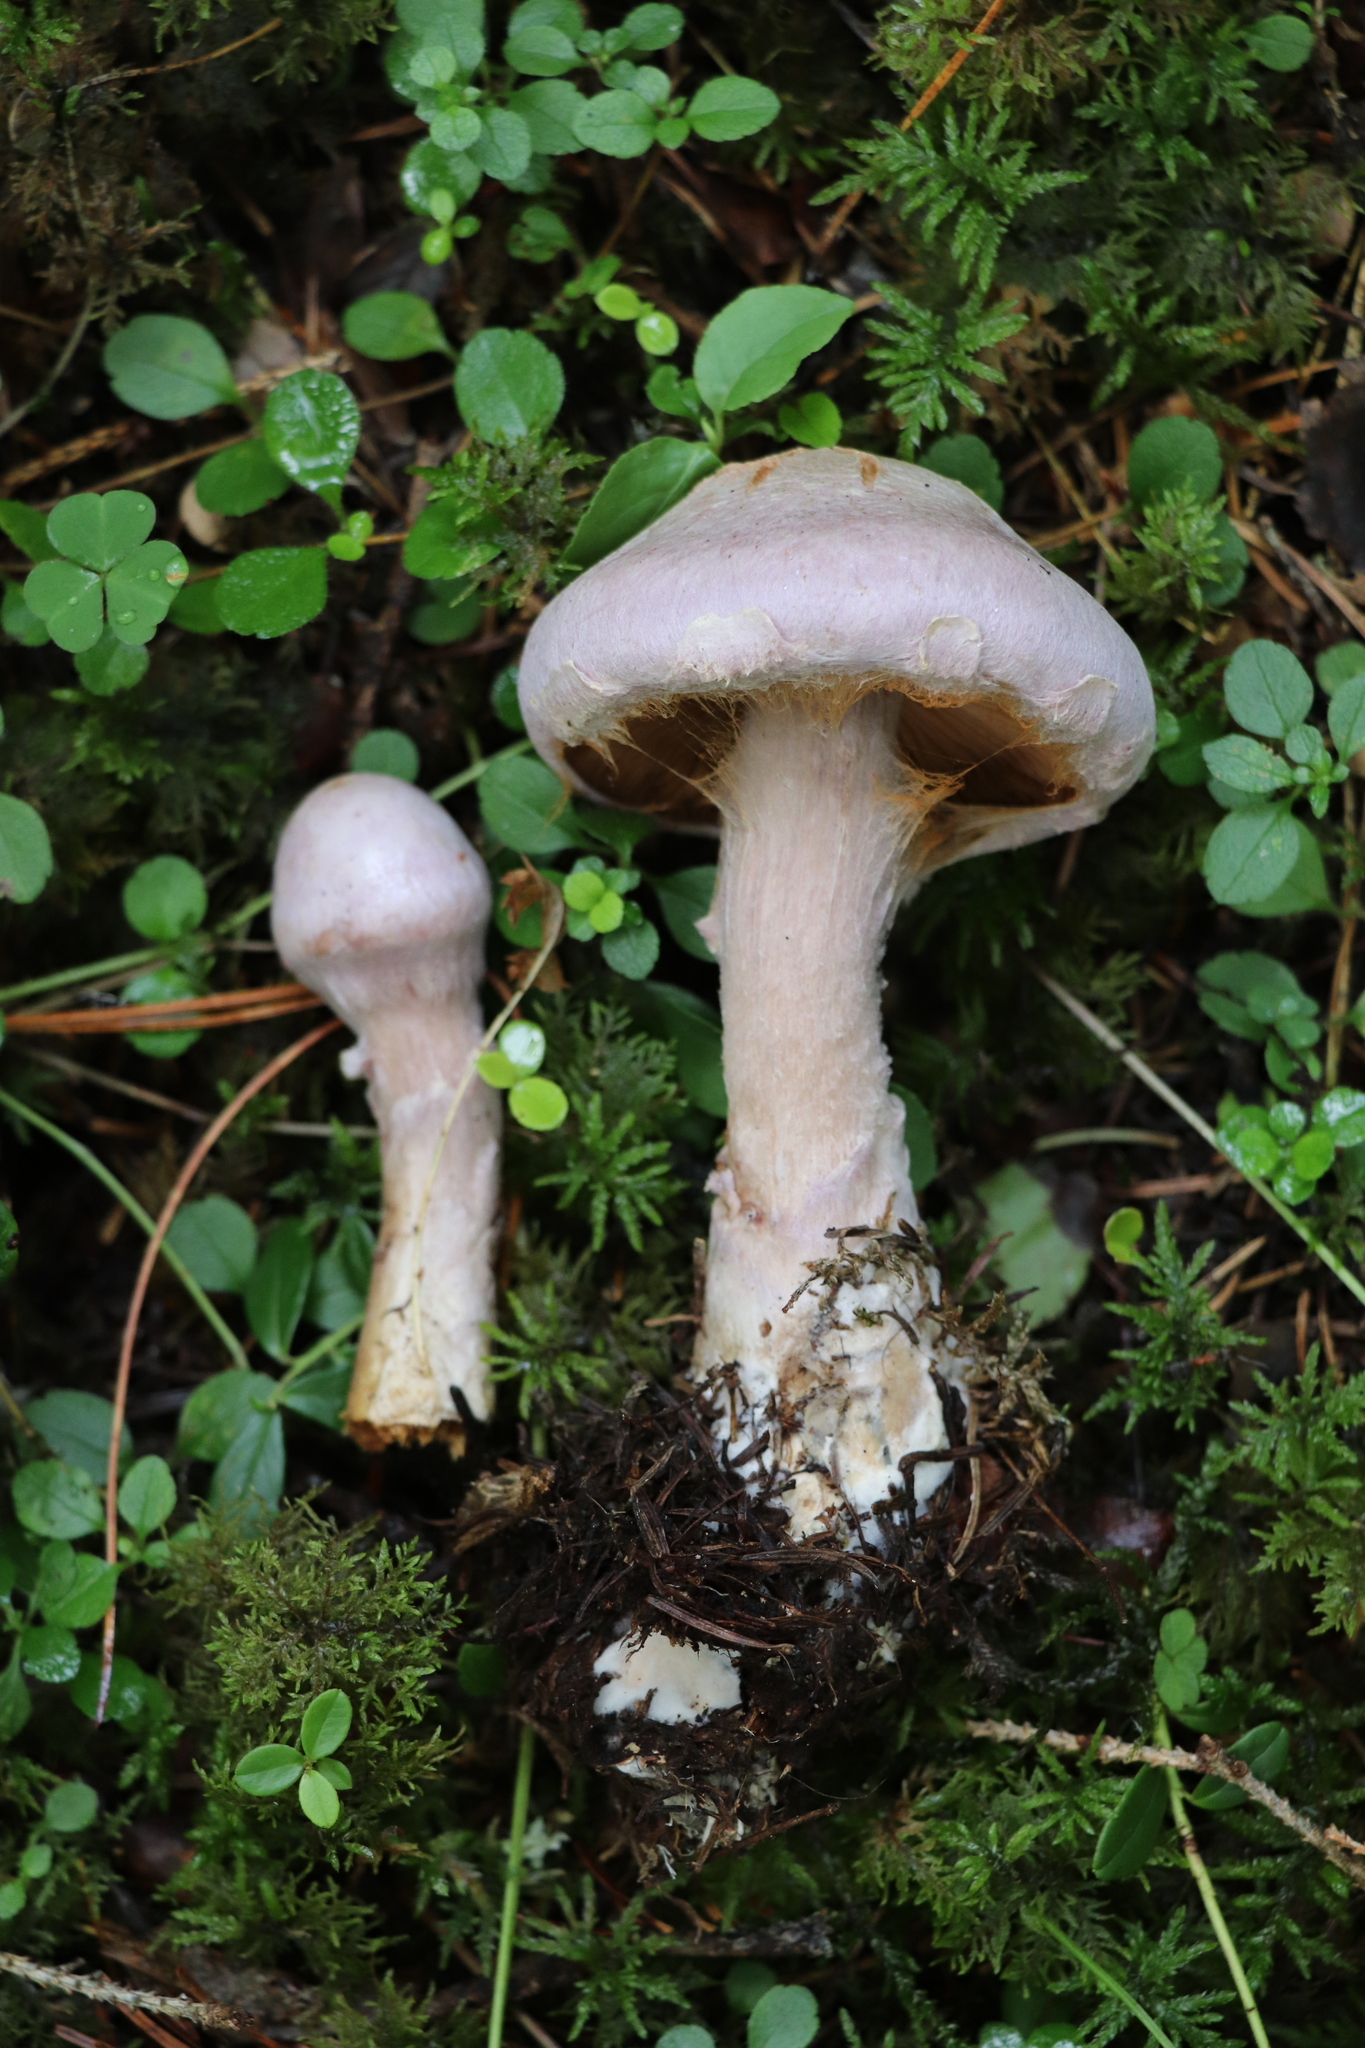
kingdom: Fungi
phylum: Basidiomycota
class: Agaricomycetes
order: Agaricales
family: Cortinariaceae
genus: Cortinarius
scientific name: Cortinarius camphoratus
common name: Goatcheese webcap
